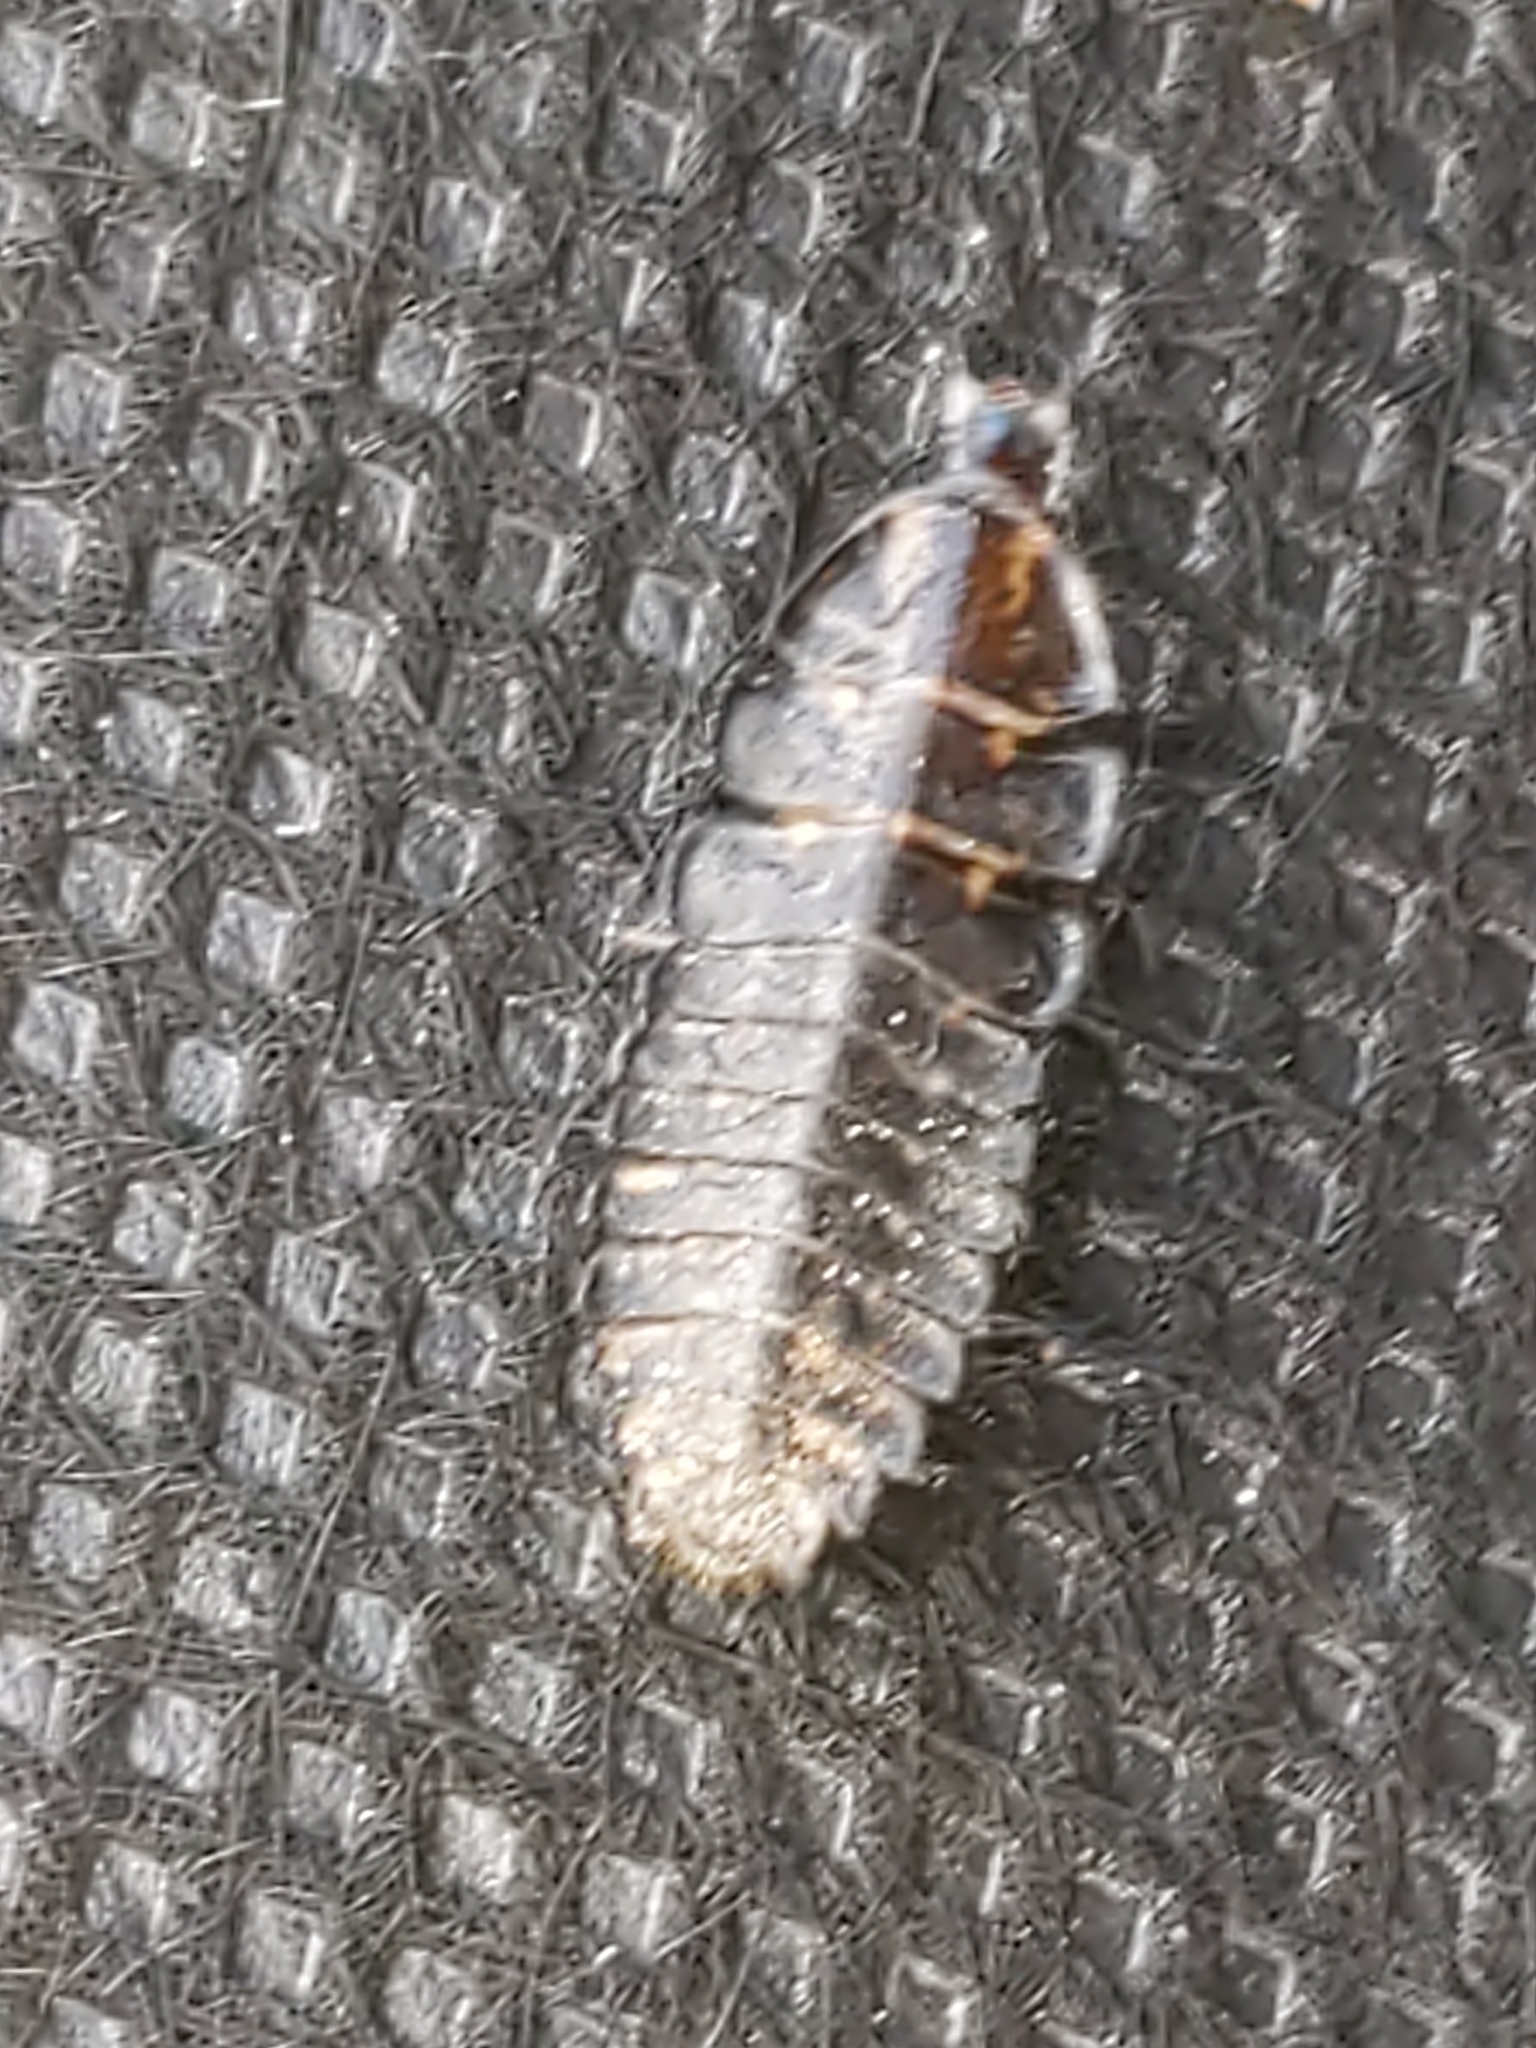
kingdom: Animalia
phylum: Arthropoda
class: Insecta
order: Coleoptera
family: Lampyridae
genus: Photuris
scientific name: Photuris
